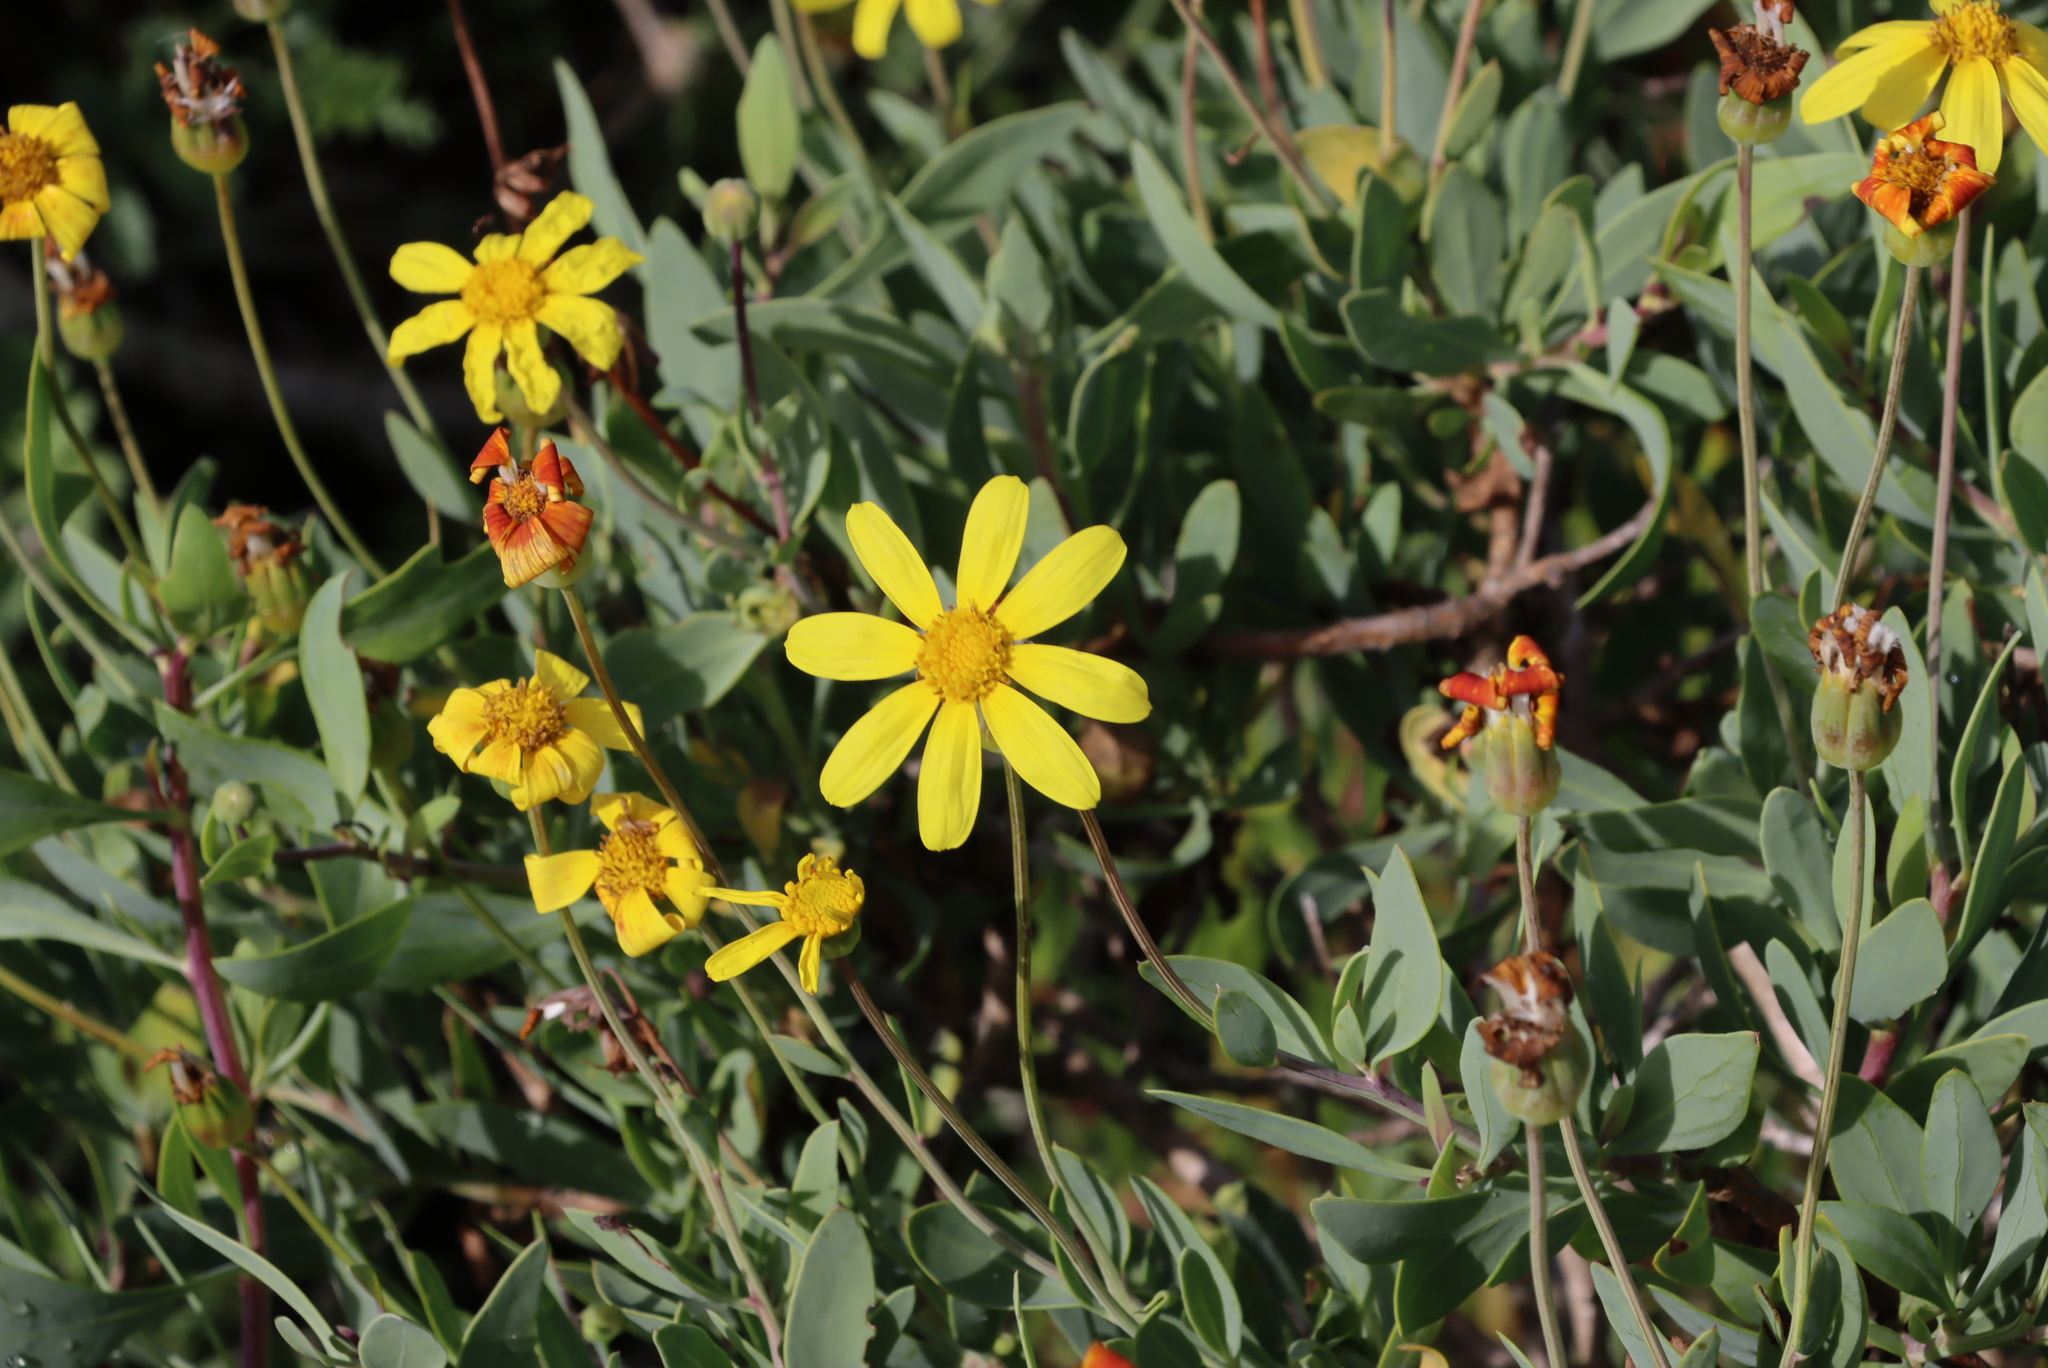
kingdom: Plantae
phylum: Tracheophyta
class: Magnoliopsida
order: Asterales
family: Asteraceae
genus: Othonna
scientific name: Othonna coronopifolia
